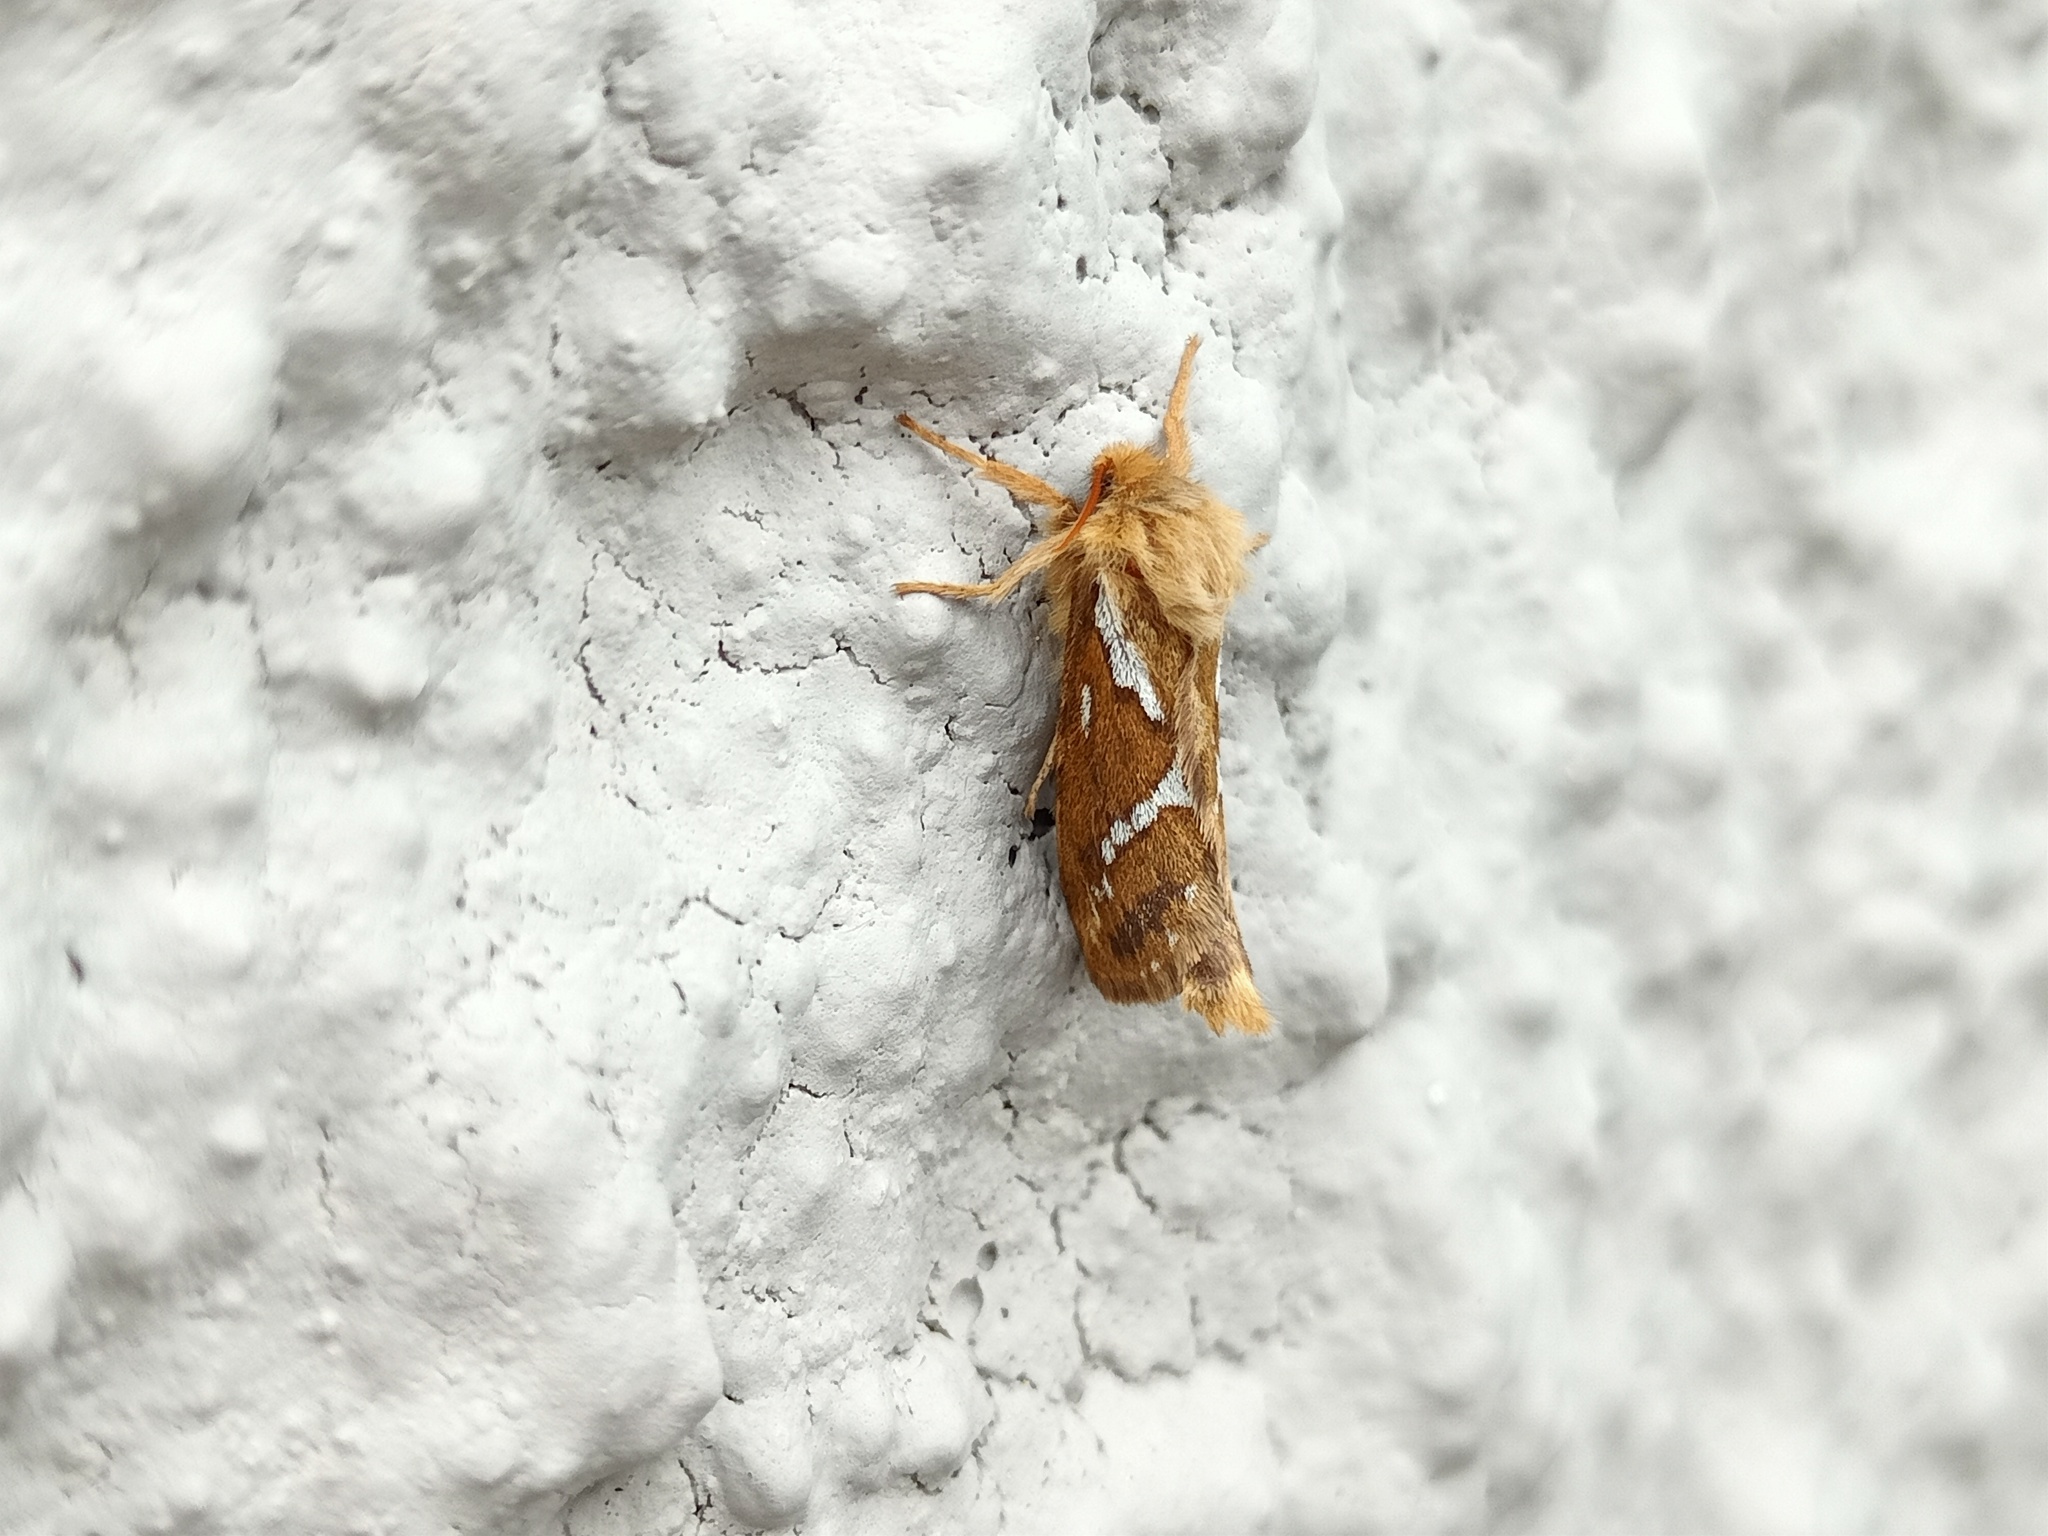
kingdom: Animalia
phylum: Arthropoda
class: Insecta
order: Lepidoptera
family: Hepialidae
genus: Korscheltellus
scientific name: Korscheltellus lupulina
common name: Common swift
